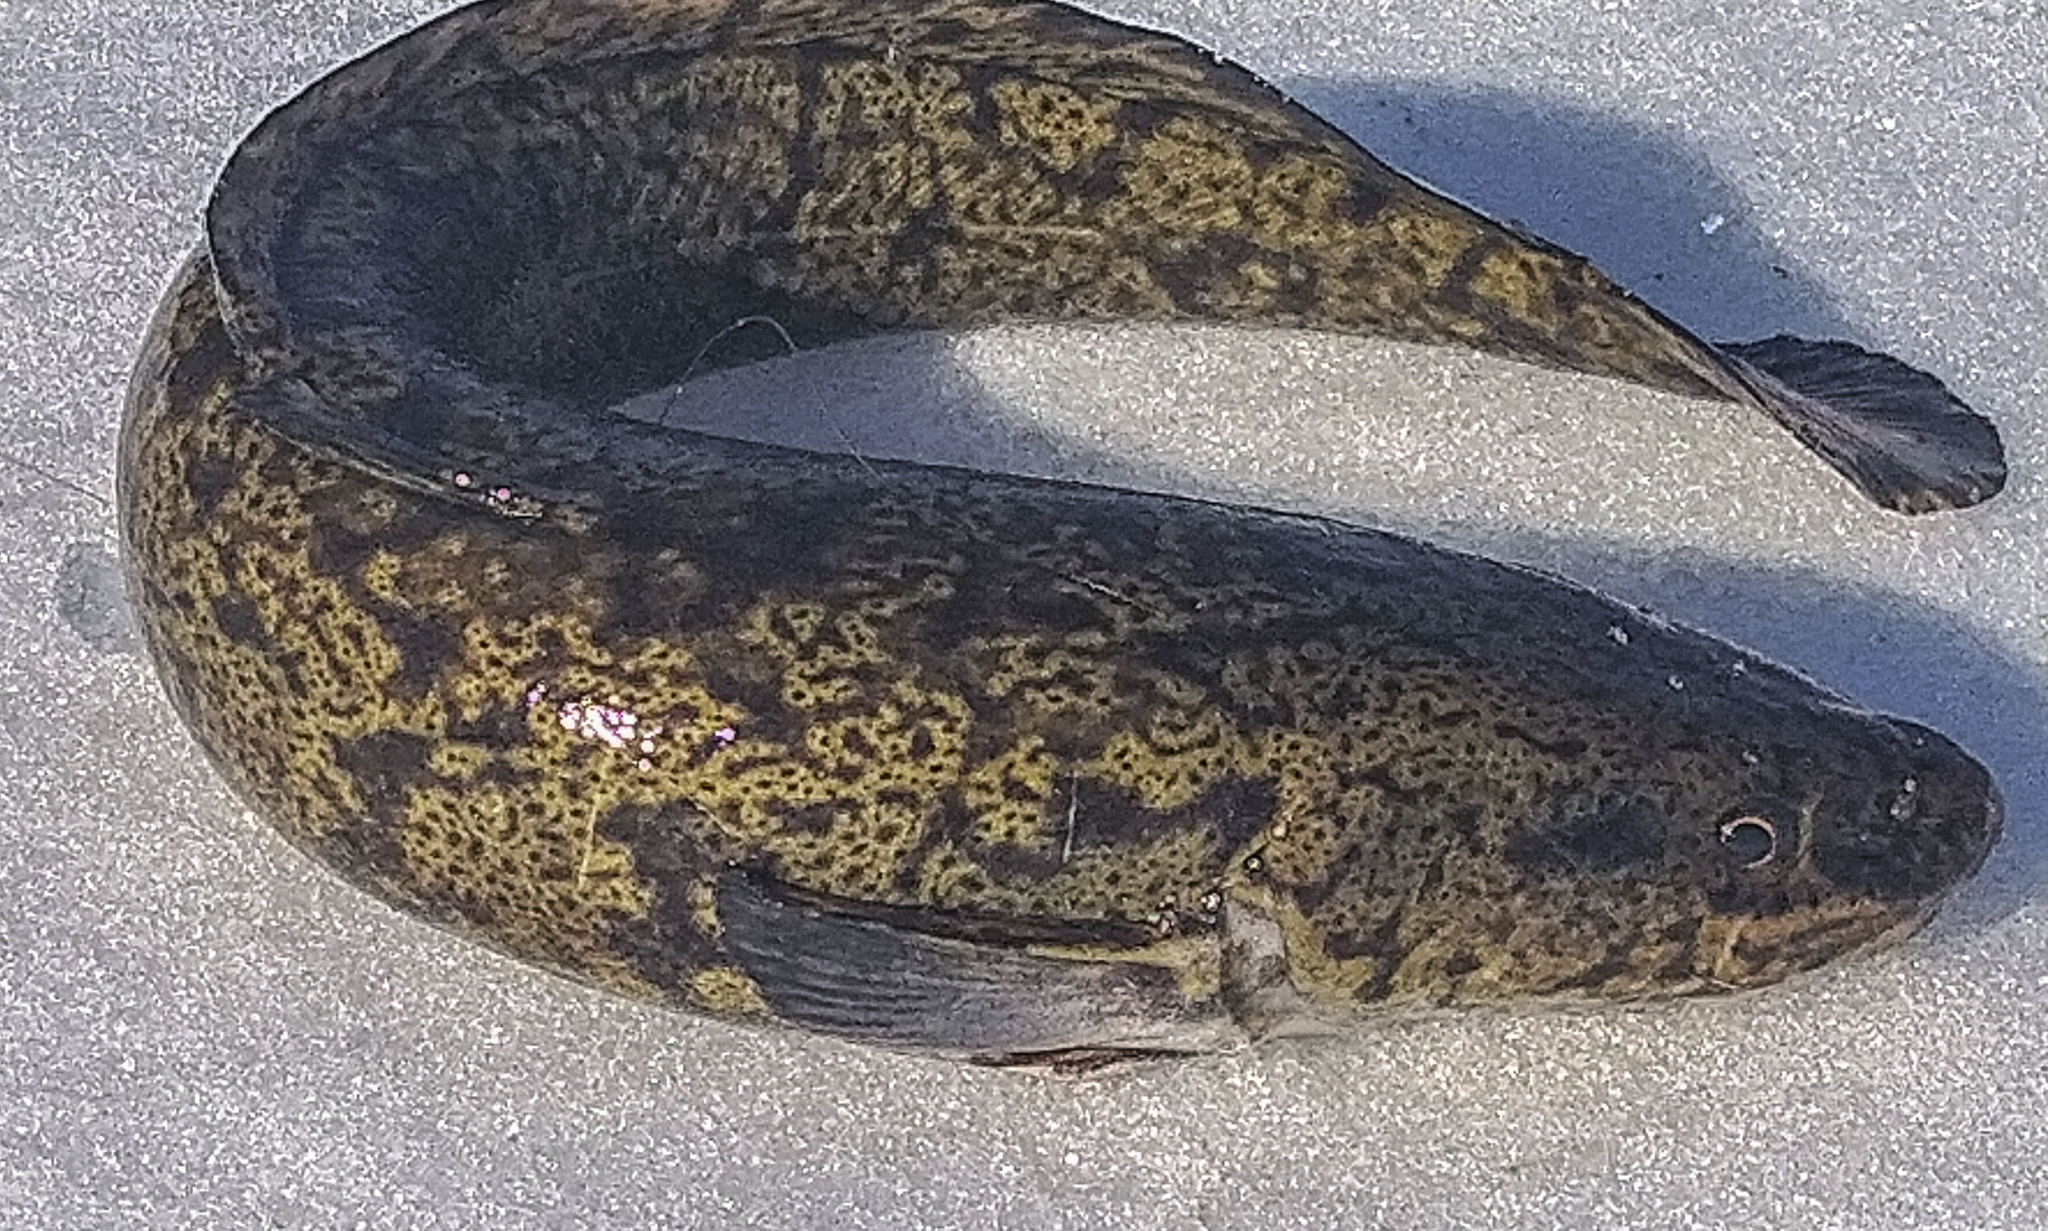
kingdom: Animalia
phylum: Chordata
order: Gadiformes
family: Lotidae
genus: Lota
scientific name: Lota lota
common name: Burbot
